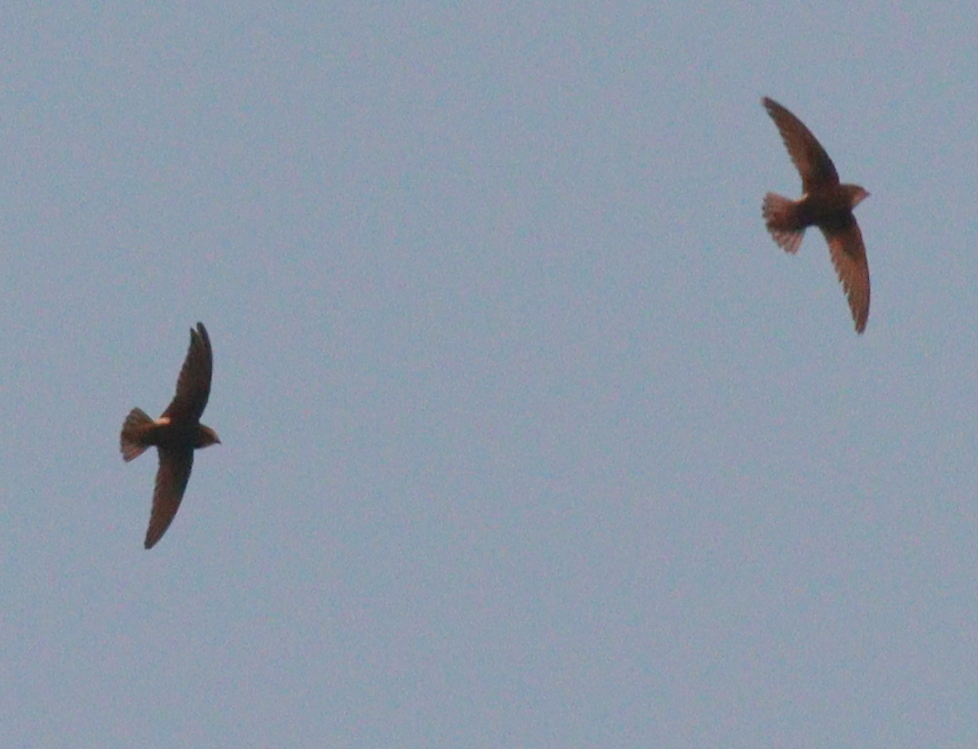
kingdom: Animalia
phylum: Chordata
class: Aves
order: Apodiformes
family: Apodidae
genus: Apus
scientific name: Apus affinis
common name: Little swift
